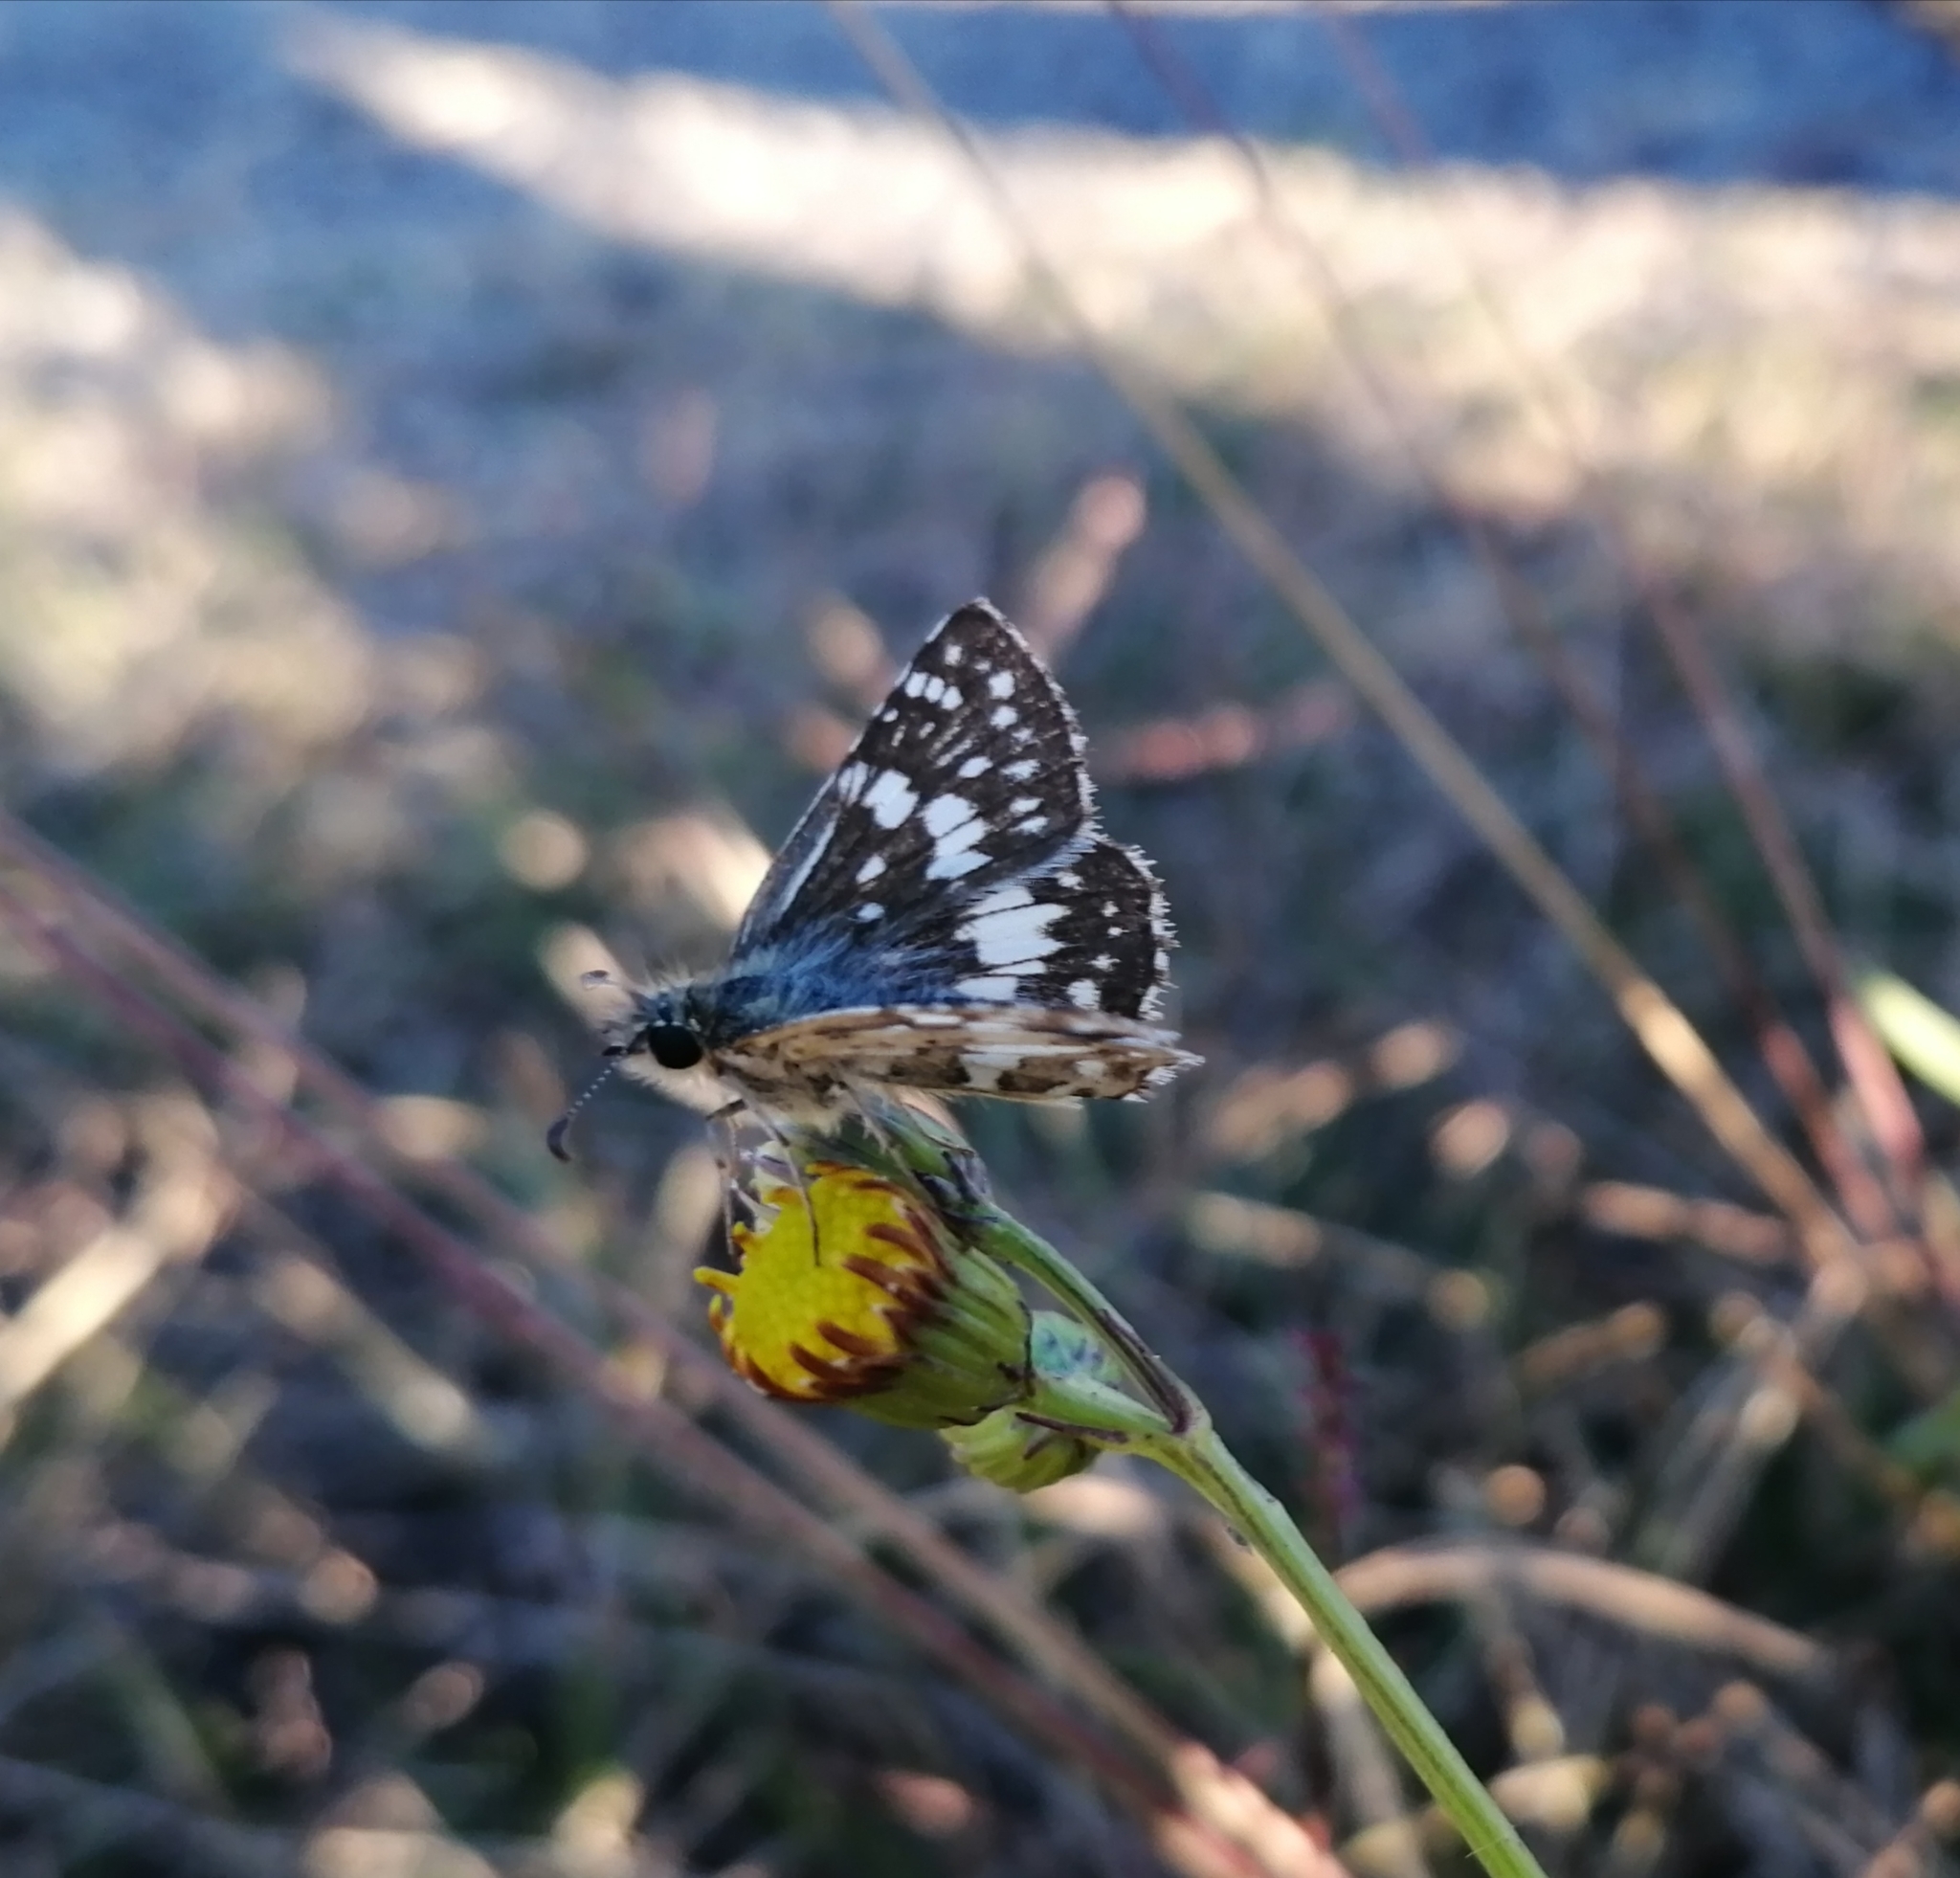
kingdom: Animalia
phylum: Arthropoda
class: Insecta
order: Lepidoptera
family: Hesperiidae
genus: Burnsius
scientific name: Burnsius orcynoides
